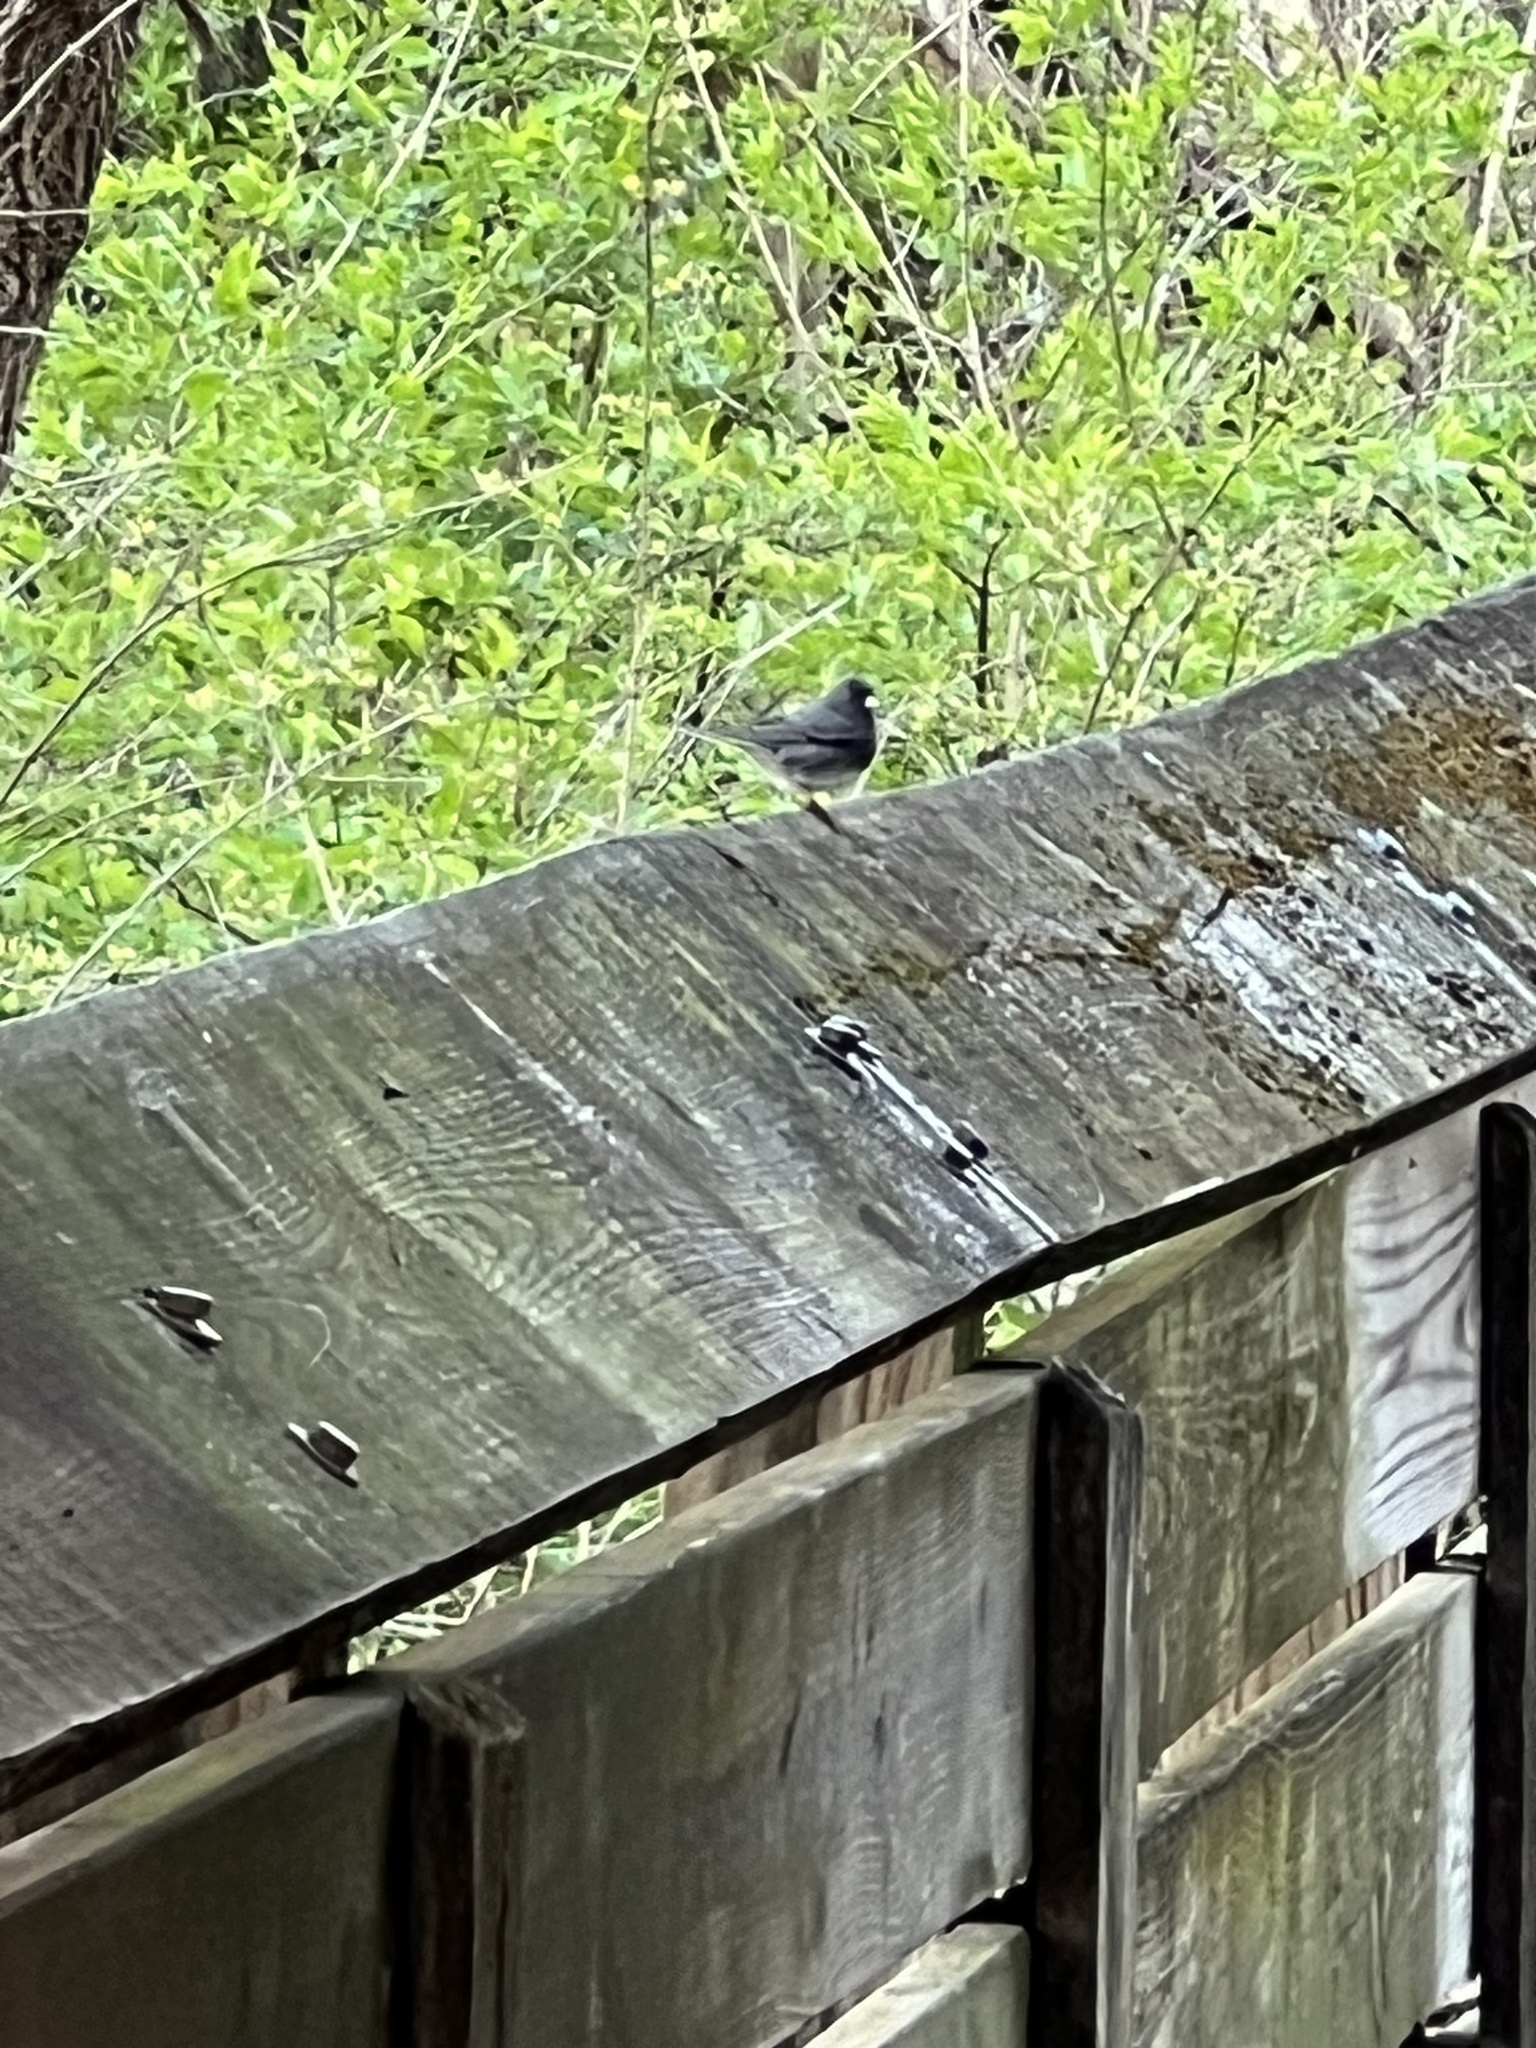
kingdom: Animalia
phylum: Chordata
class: Aves
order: Passeriformes
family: Passerellidae
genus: Junco
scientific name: Junco hyemalis
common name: Dark-eyed junco
